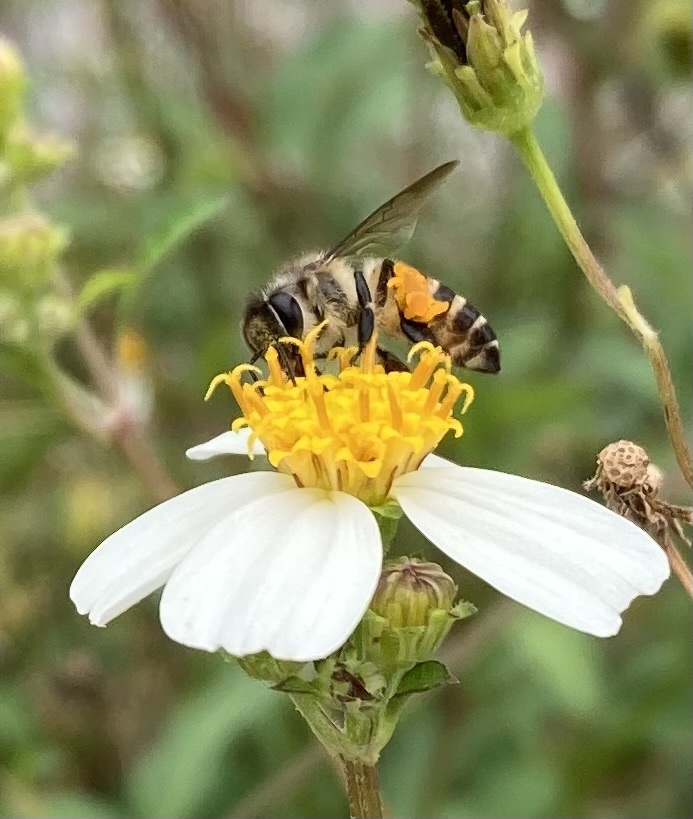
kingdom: Animalia
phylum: Arthropoda
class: Insecta
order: Hymenoptera
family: Apidae
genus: Apis
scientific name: Apis cerana
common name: Honey bee
